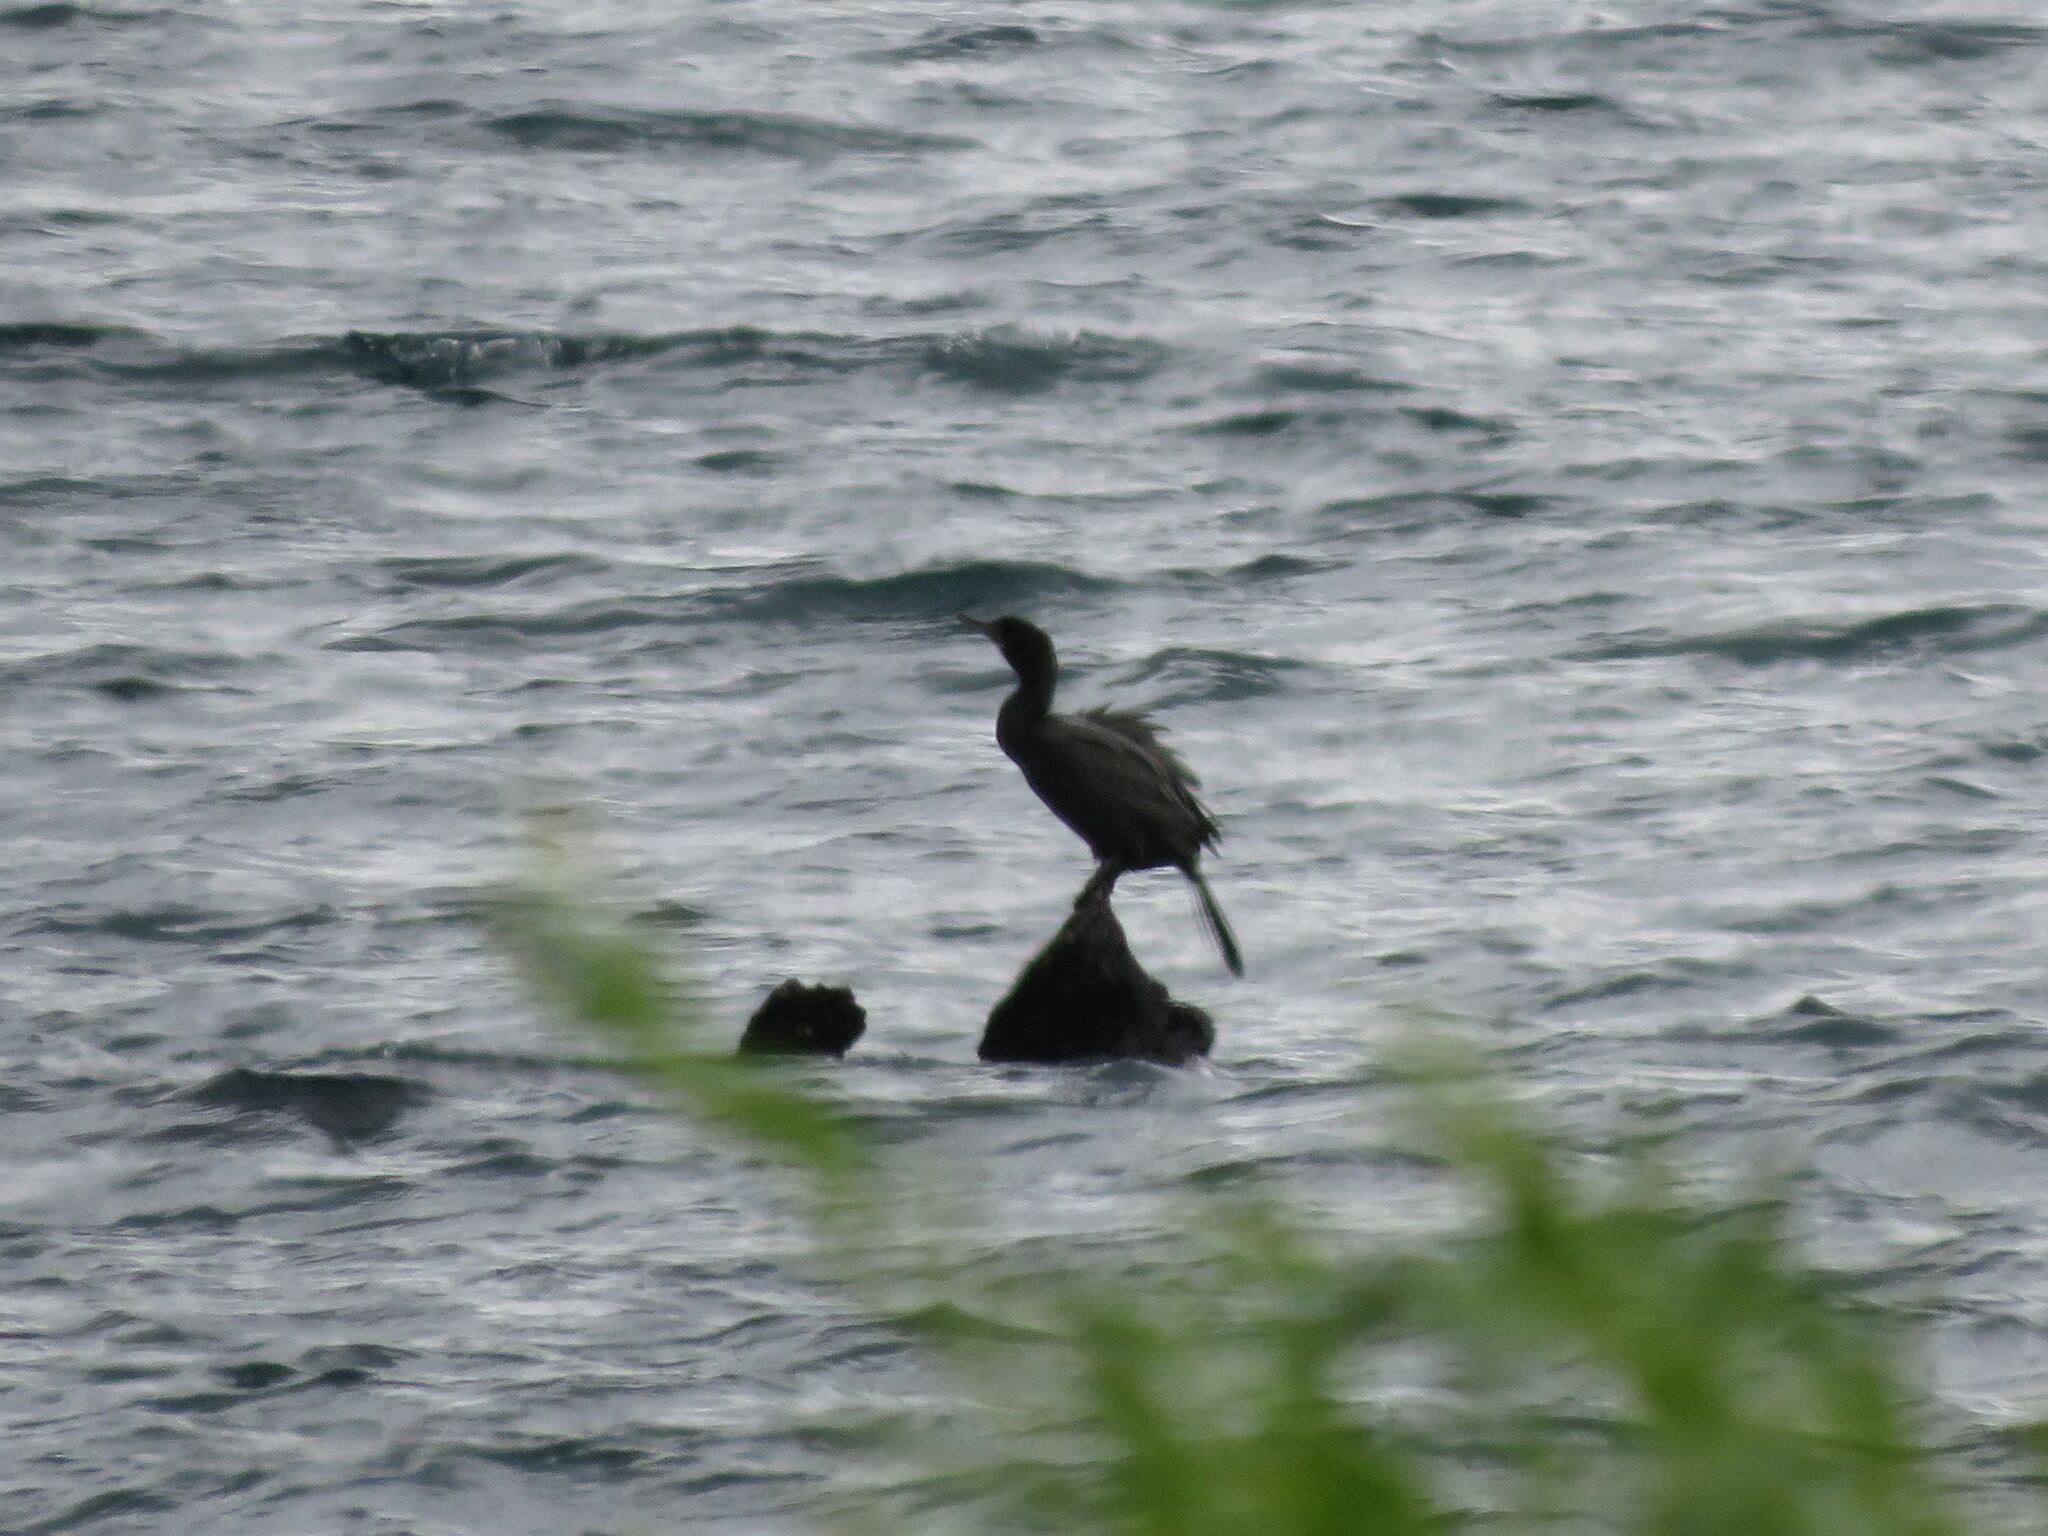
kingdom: Animalia
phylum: Chordata
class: Aves
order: Suliformes
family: Phalacrocoracidae
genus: Phalacrocorax
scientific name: Phalacrocorax brasilianus
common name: Neotropic cormorant
